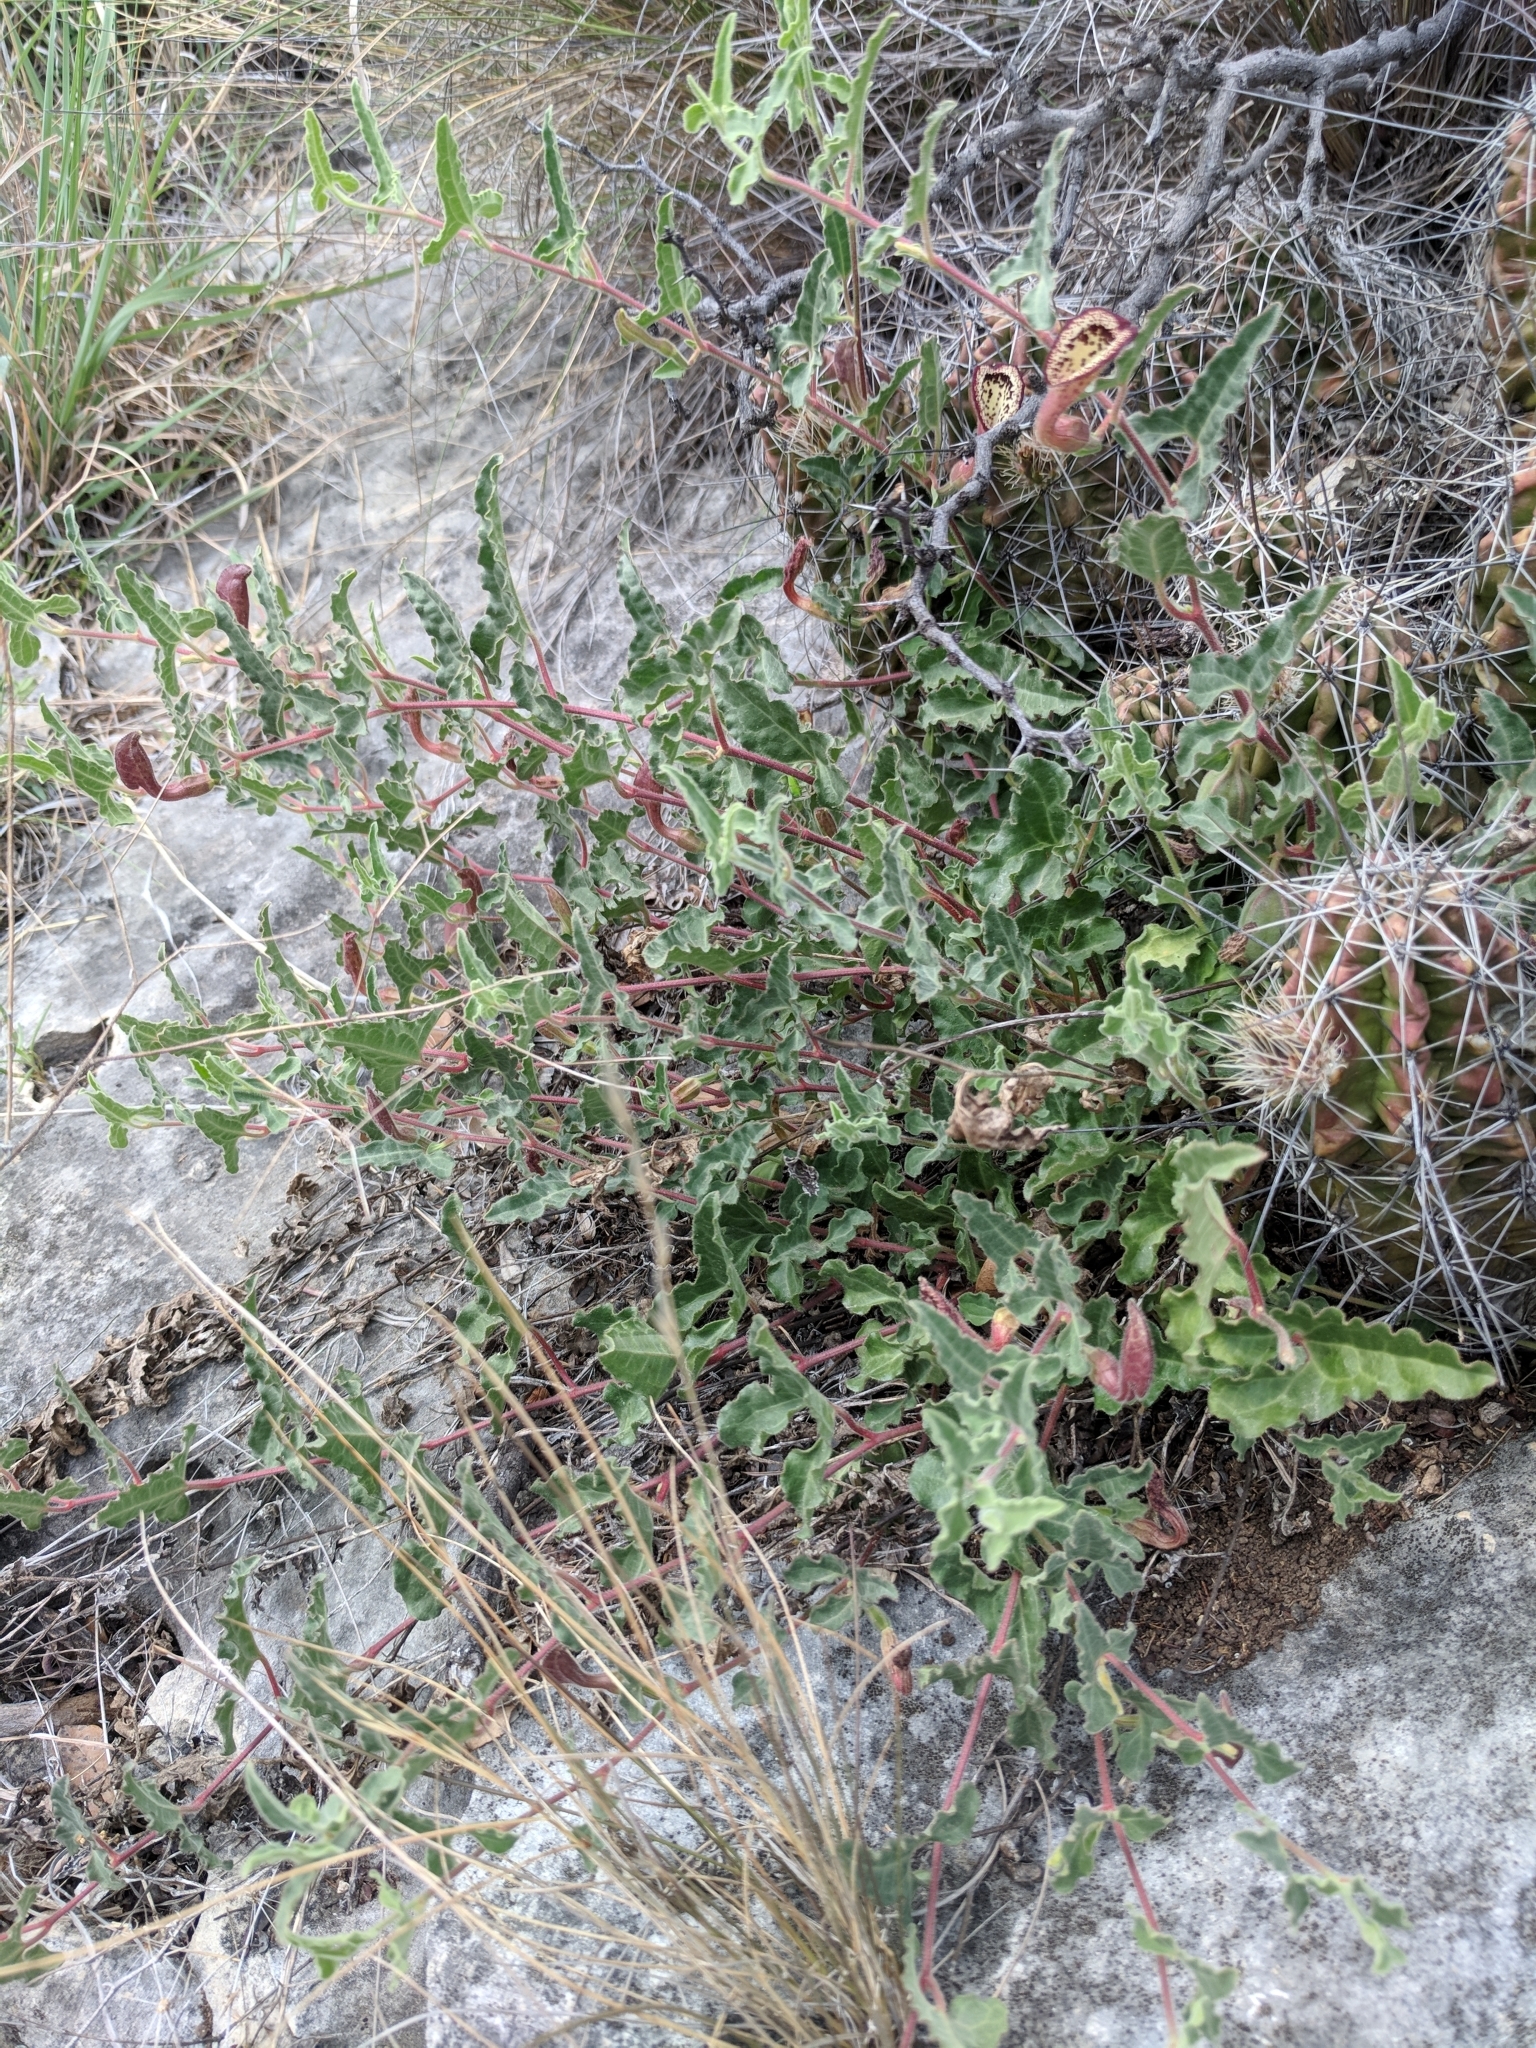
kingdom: Plantae
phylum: Tracheophyta
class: Magnoliopsida
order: Piperales
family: Aristolochiaceae
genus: Aristolochia
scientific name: Aristolochia coryi
